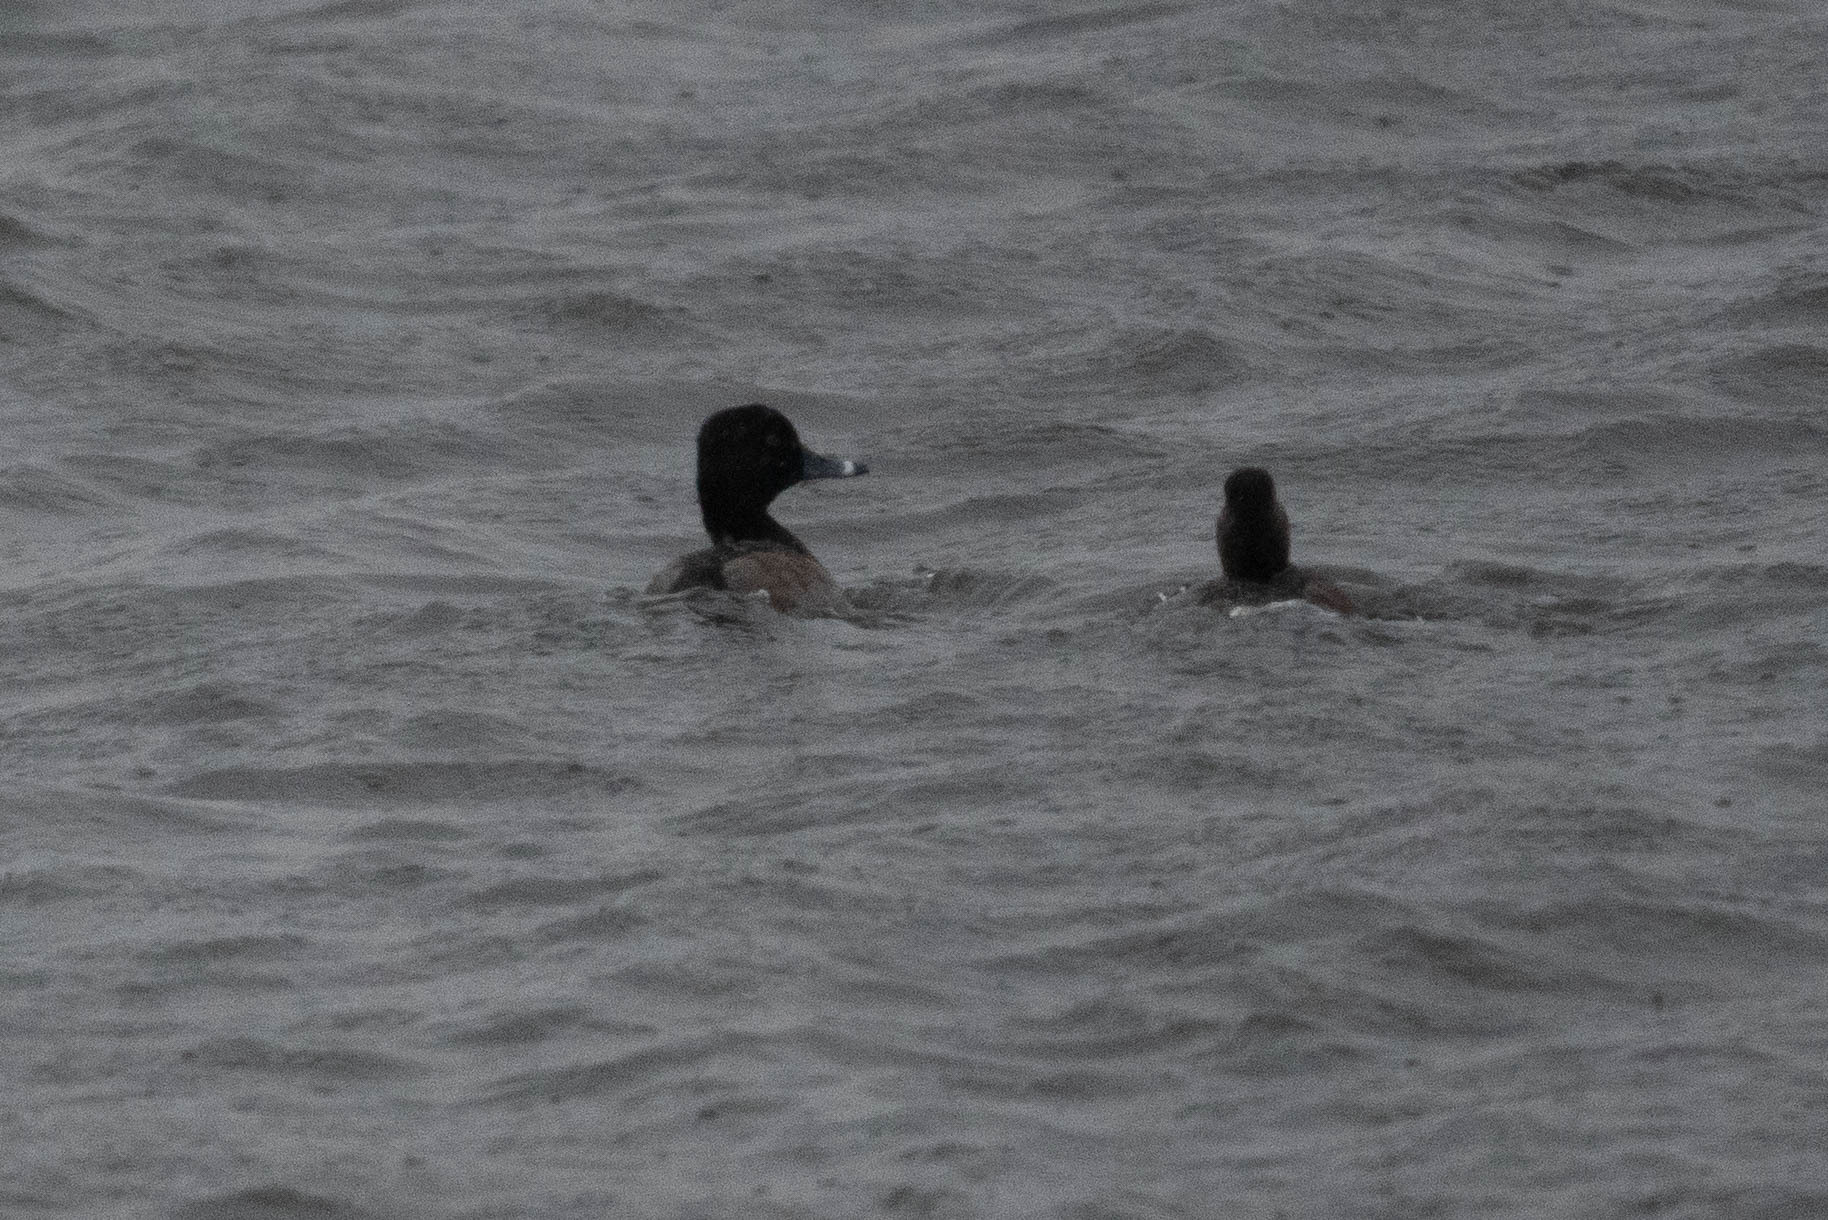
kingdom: Animalia
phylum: Chordata
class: Aves
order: Anseriformes
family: Anatidae
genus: Aythya
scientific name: Aythya collaris
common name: Ring-necked duck
